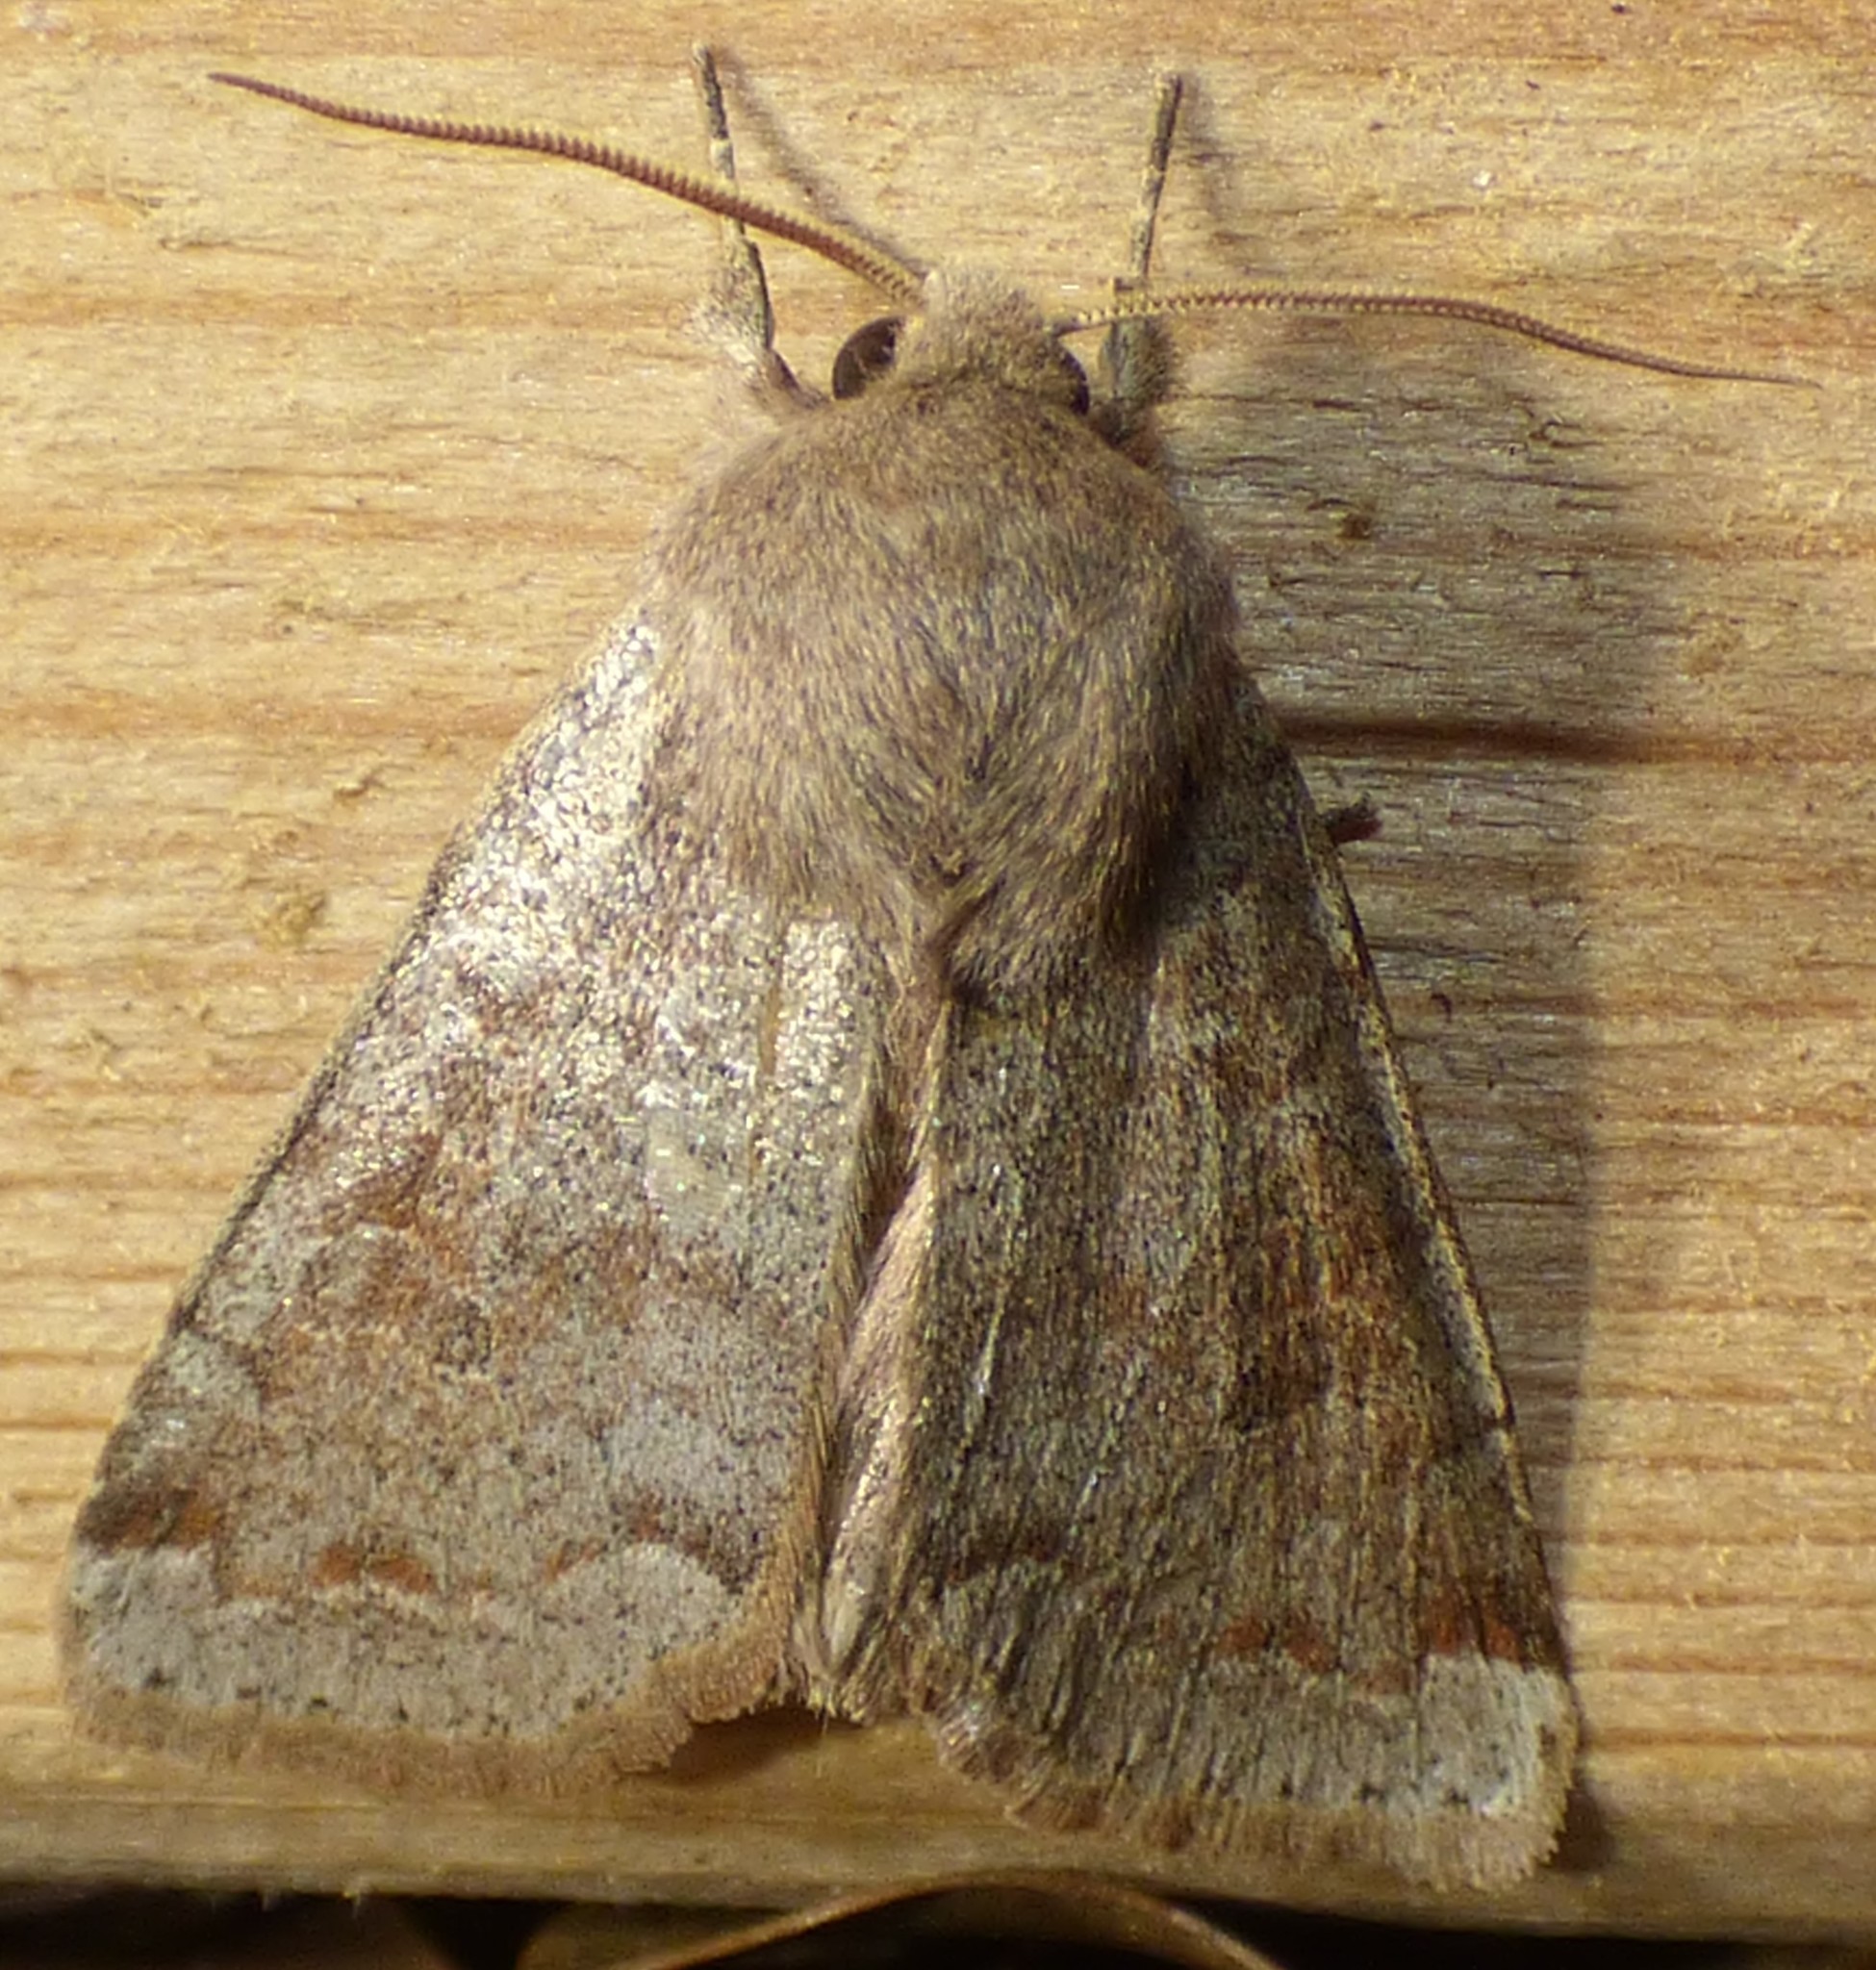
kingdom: Animalia
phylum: Arthropoda
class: Insecta
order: Lepidoptera
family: Noctuidae
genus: Orthosia
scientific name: Orthosia alurina
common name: Gray quaker
